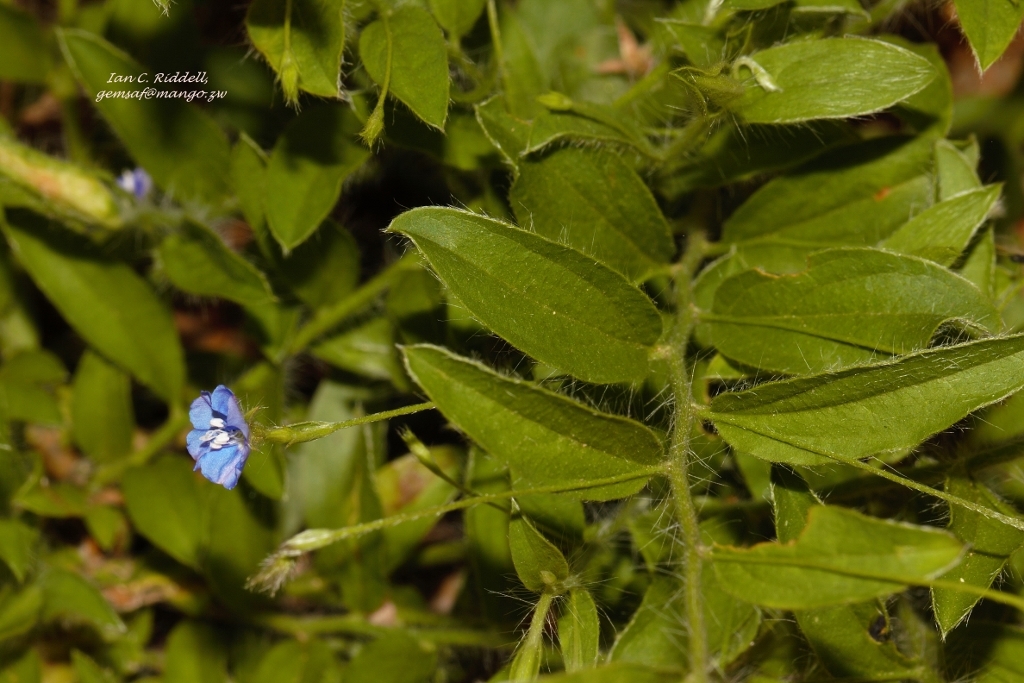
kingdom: Plantae
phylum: Tracheophyta
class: Magnoliopsida
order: Solanales
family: Convolvulaceae
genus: Evolvulus
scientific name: Evolvulus alsinoides
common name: Slender dwarf morning-glory
